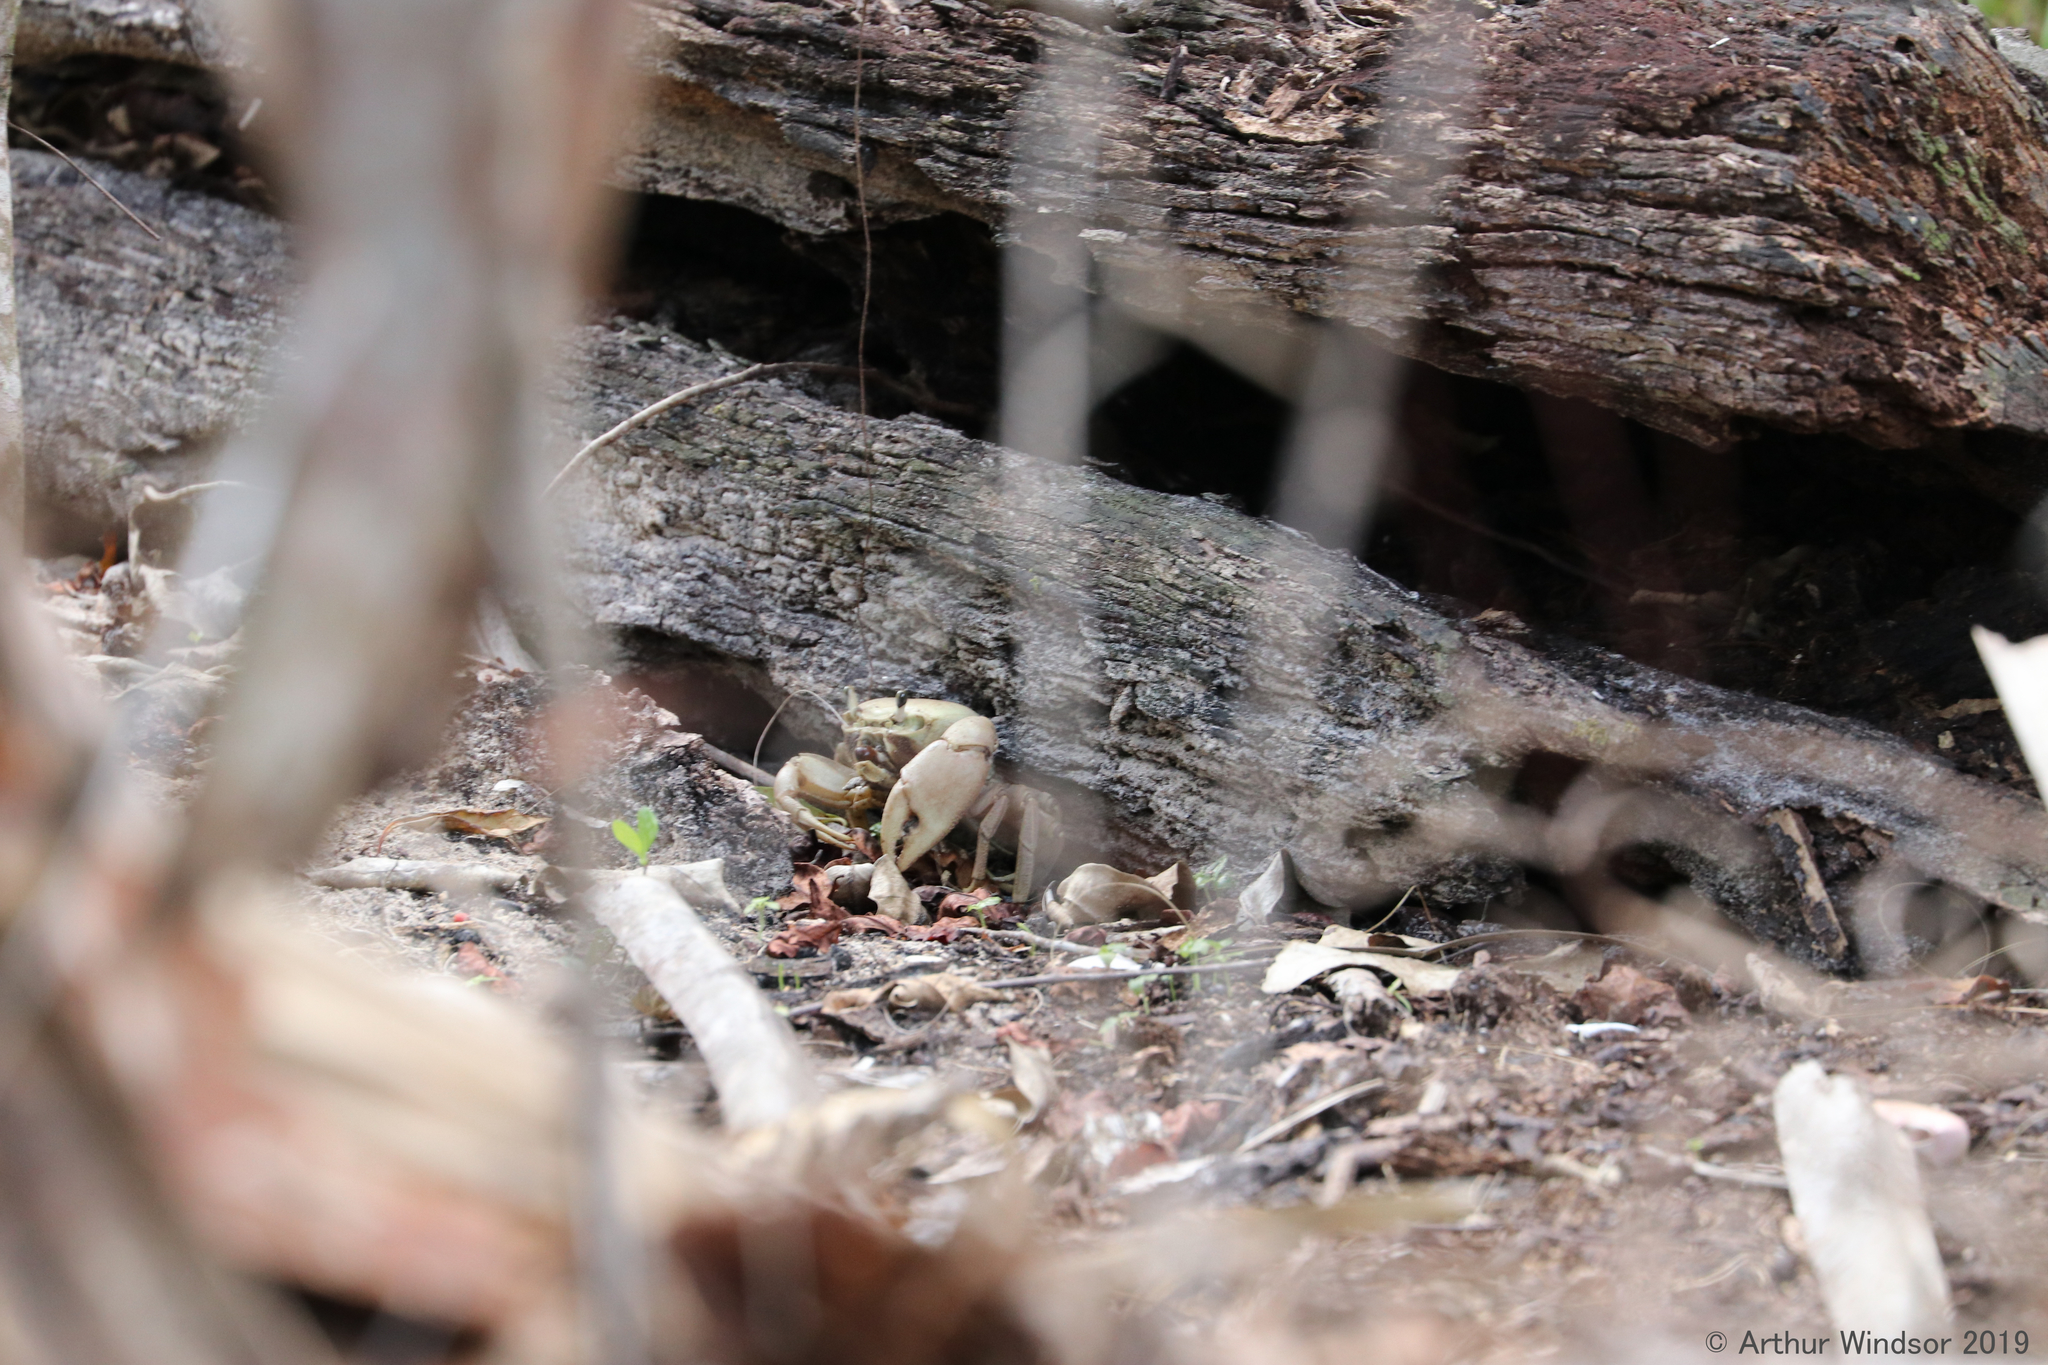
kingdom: Animalia
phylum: Arthropoda
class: Malacostraca
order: Decapoda
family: Gecarcinidae
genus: Cardisoma
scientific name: Cardisoma guanhumi
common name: Great land crab
